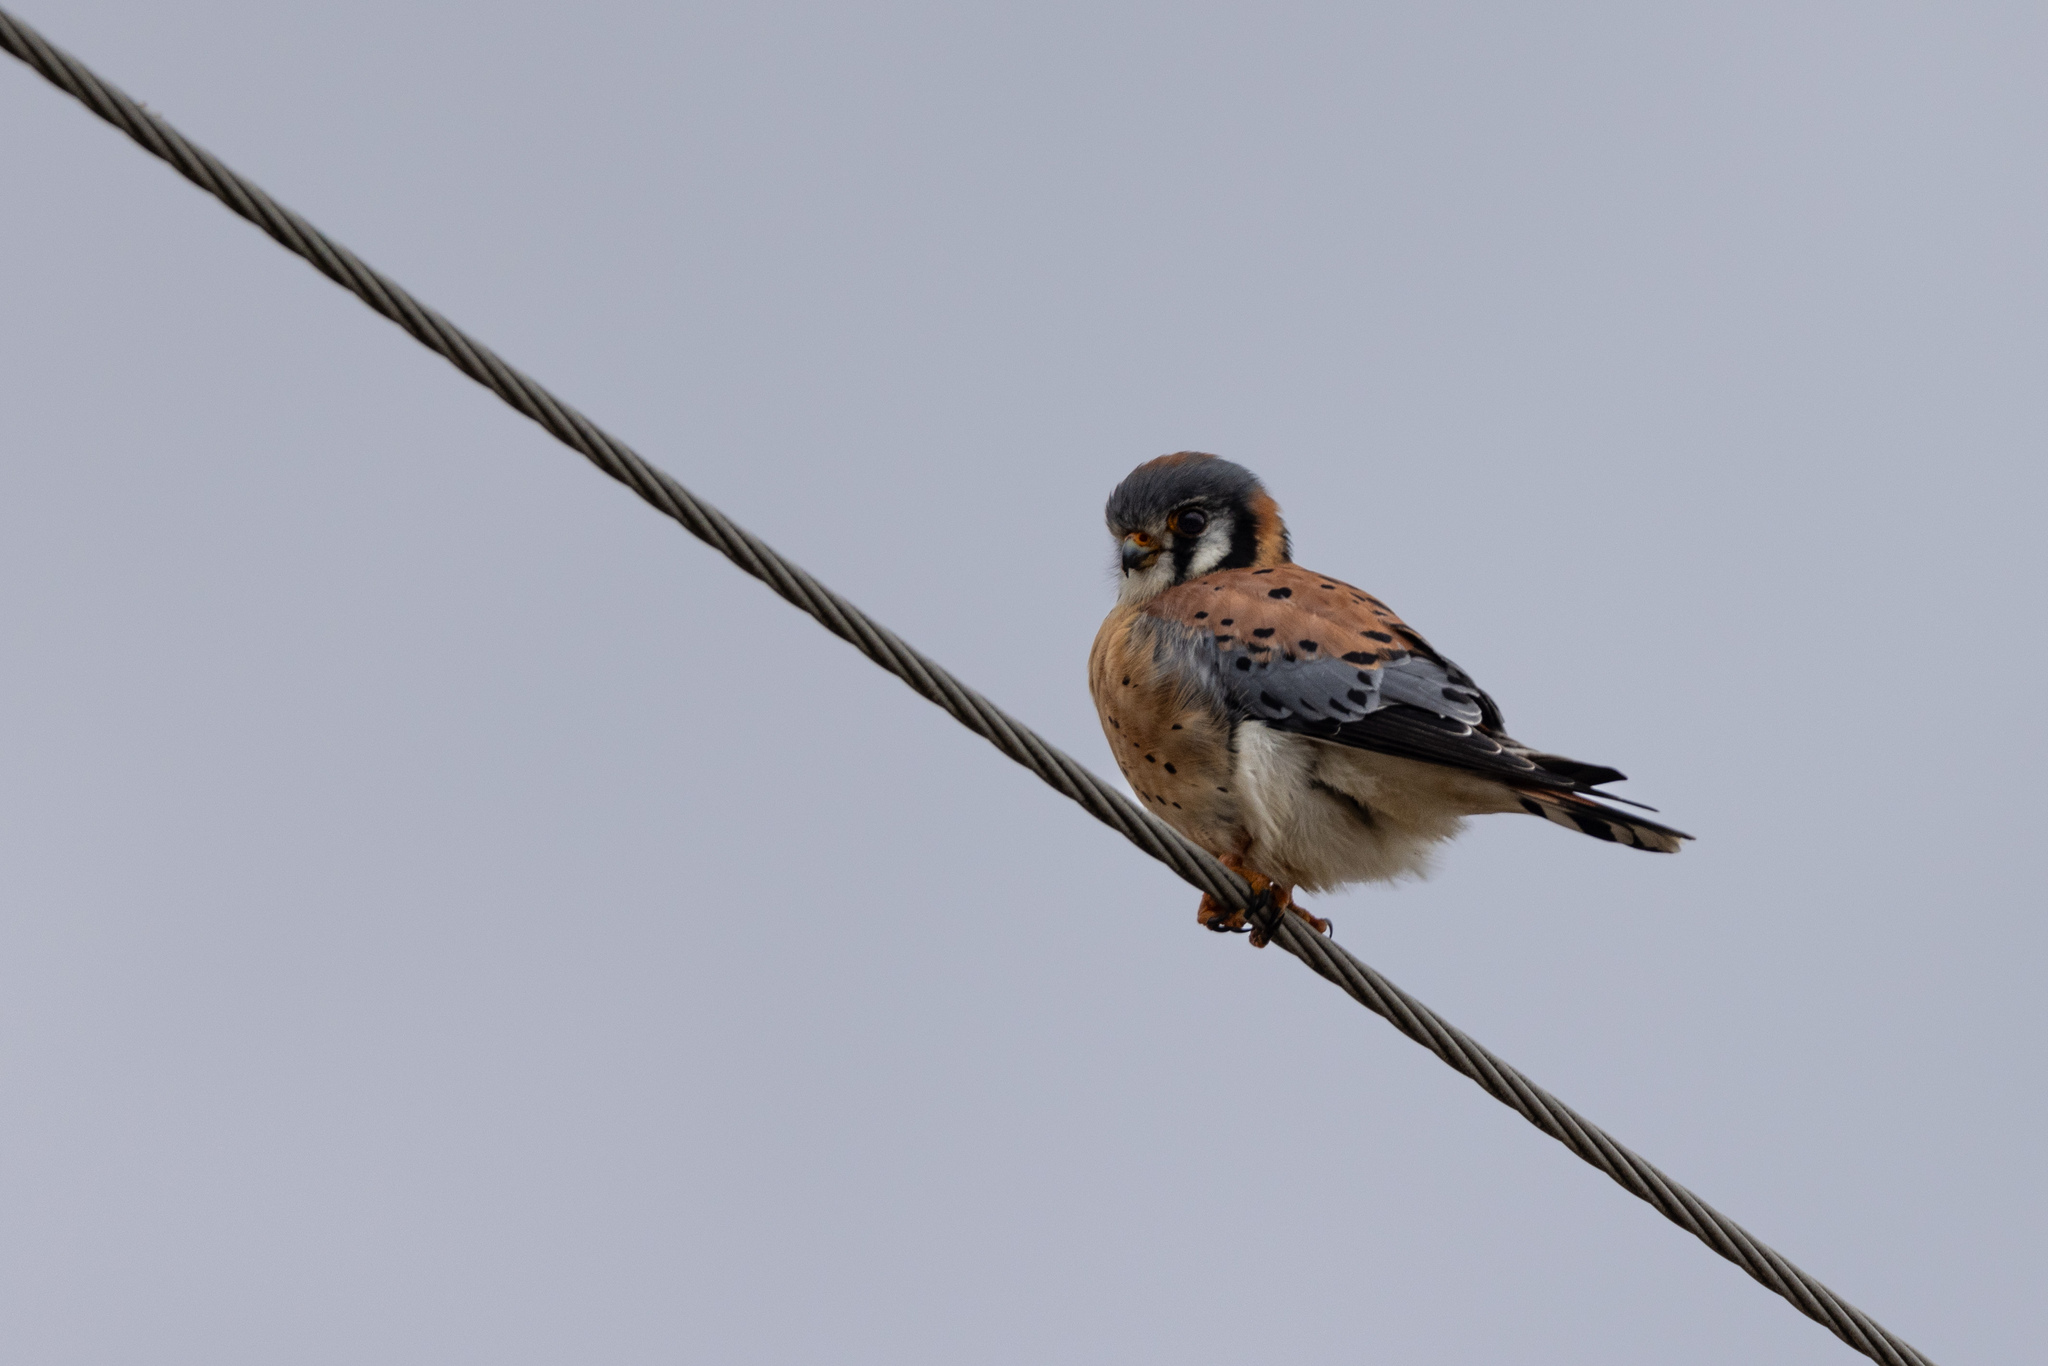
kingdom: Animalia
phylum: Chordata
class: Aves
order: Falconiformes
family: Falconidae
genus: Falco
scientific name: Falco sparverius
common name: American kestrel
